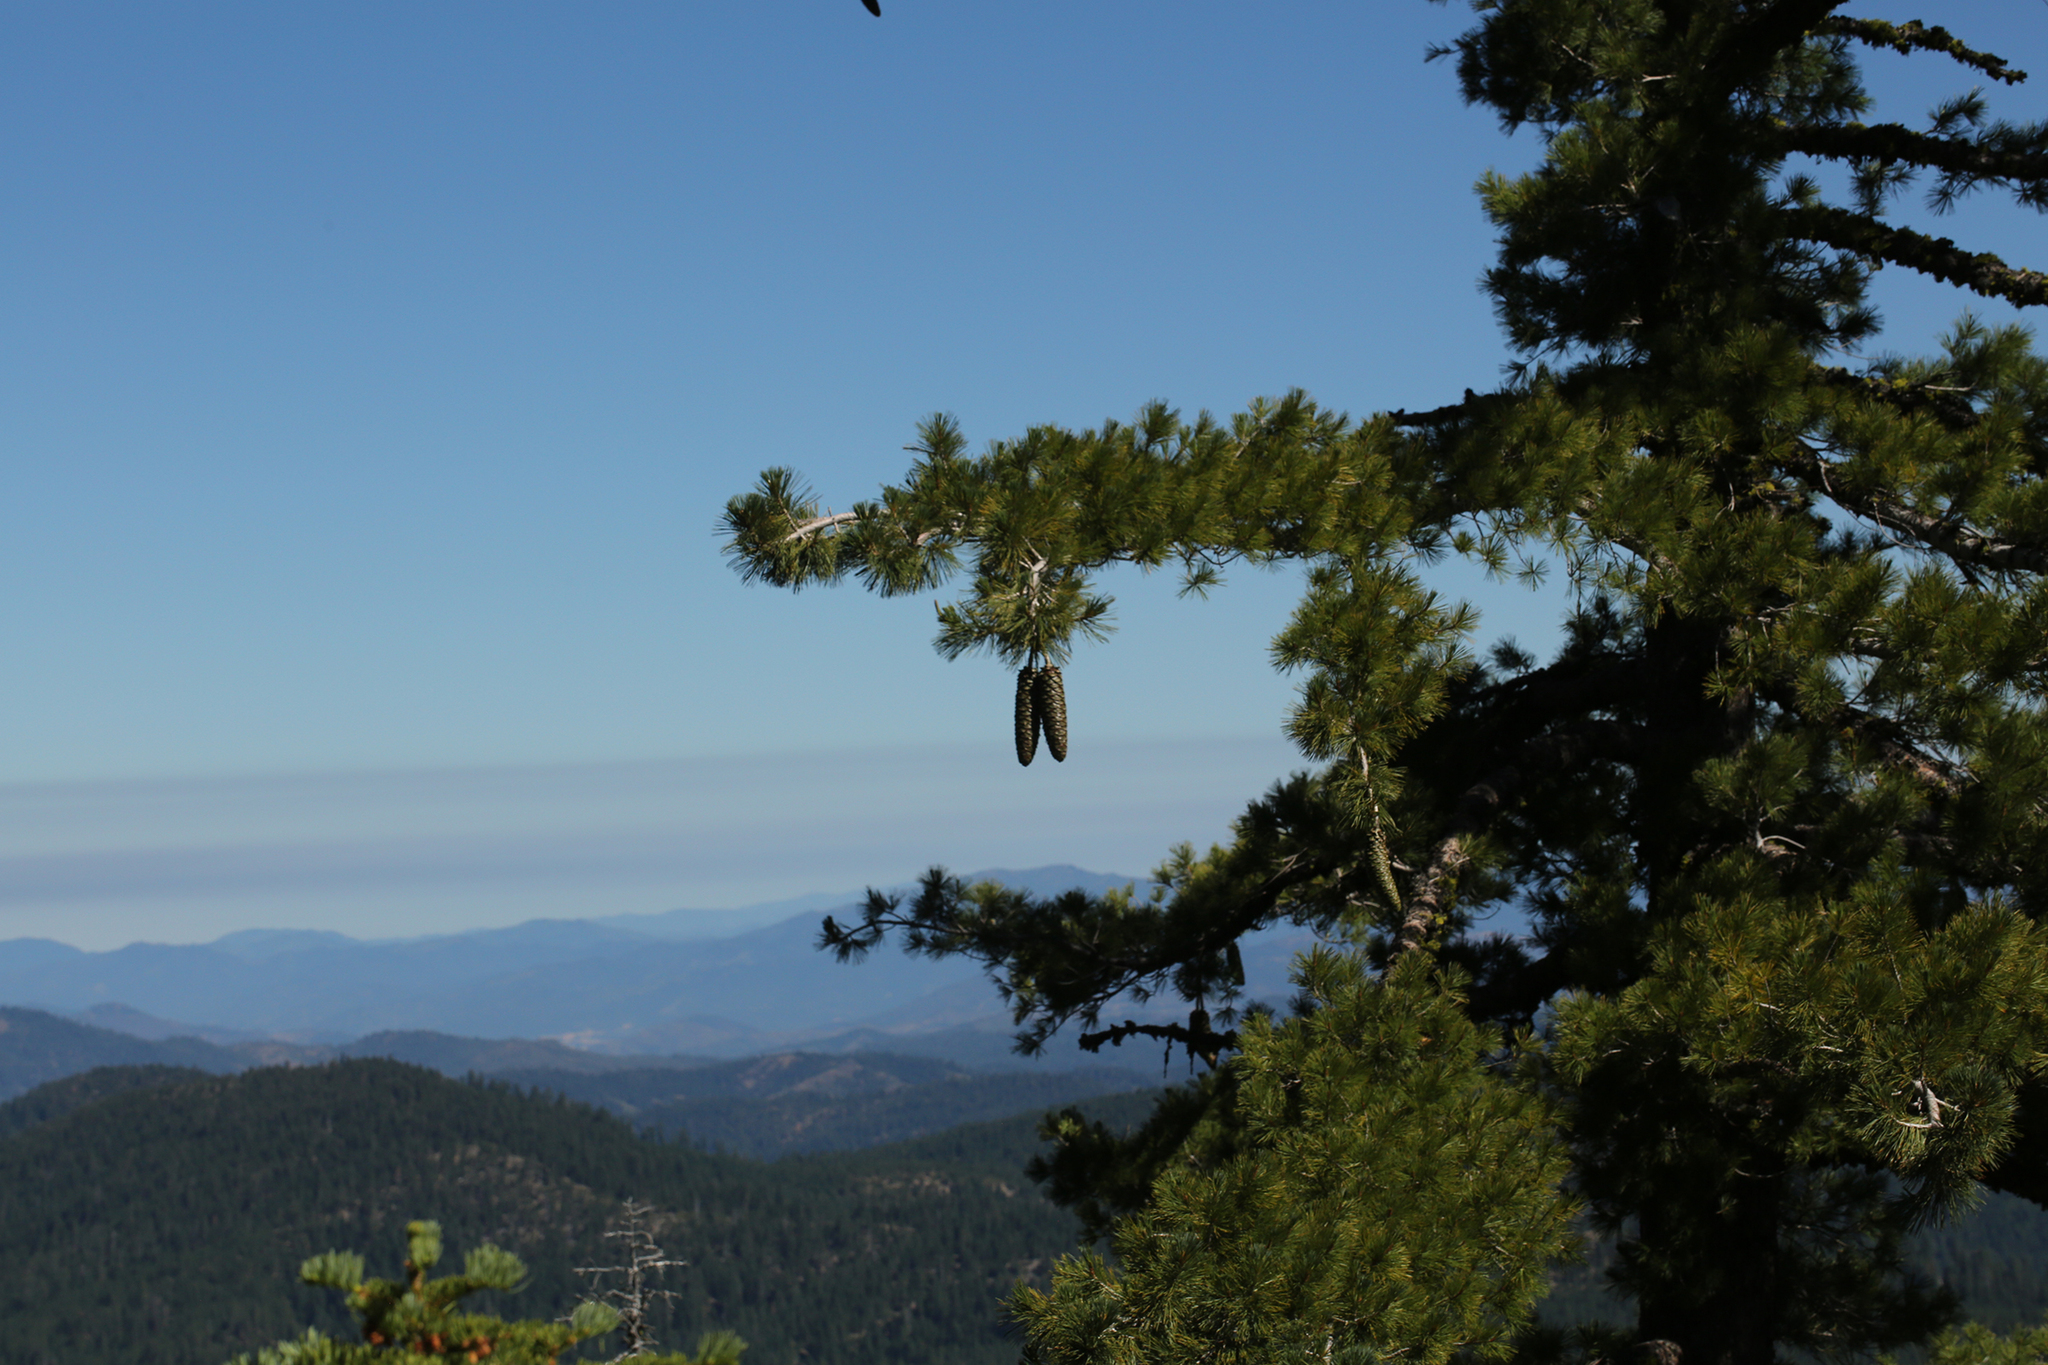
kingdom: Plantae
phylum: Tracheophyta
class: Pinopsida
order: Pinales
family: Pinaceae
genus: Pinus
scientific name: Pinus lambertiana
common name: Sugar pine
